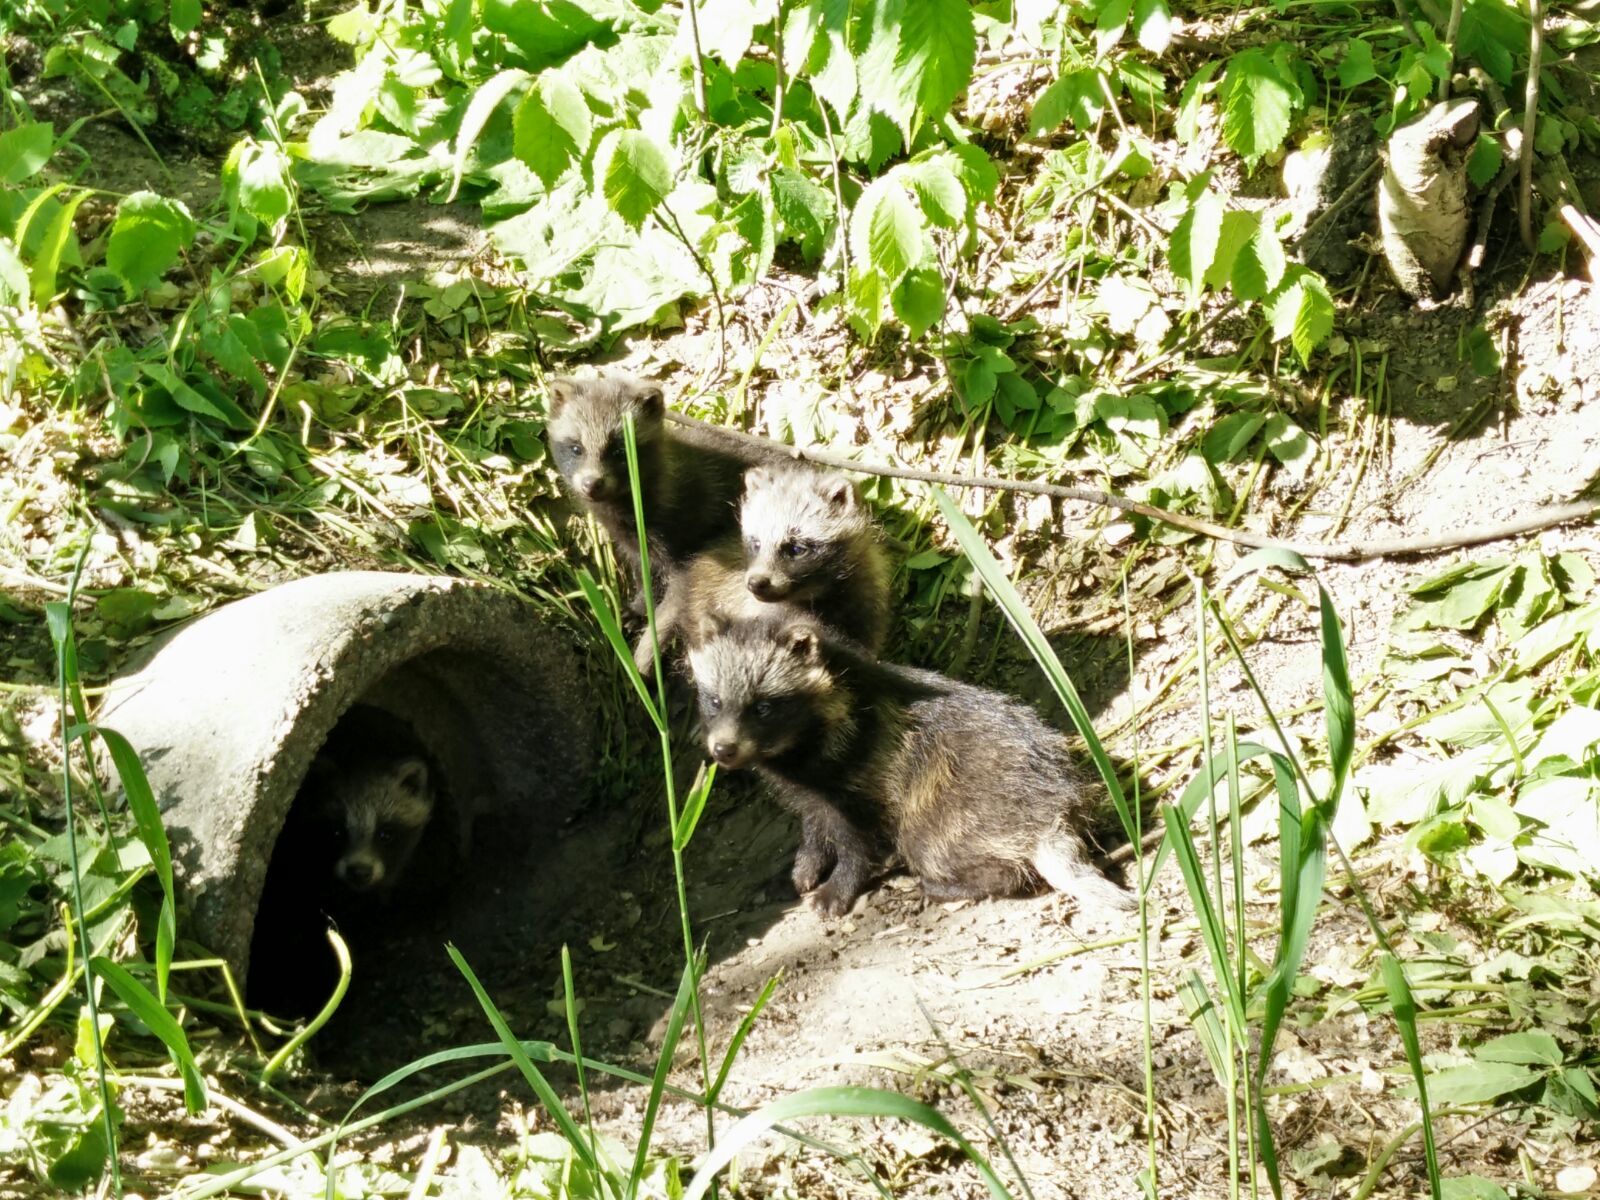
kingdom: Animalia
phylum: Chordata
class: Mammalia
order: Carnivora
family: Canidae
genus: Nyctereutes
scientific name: Nyctereutes procyonoides
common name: Raccoon dog
